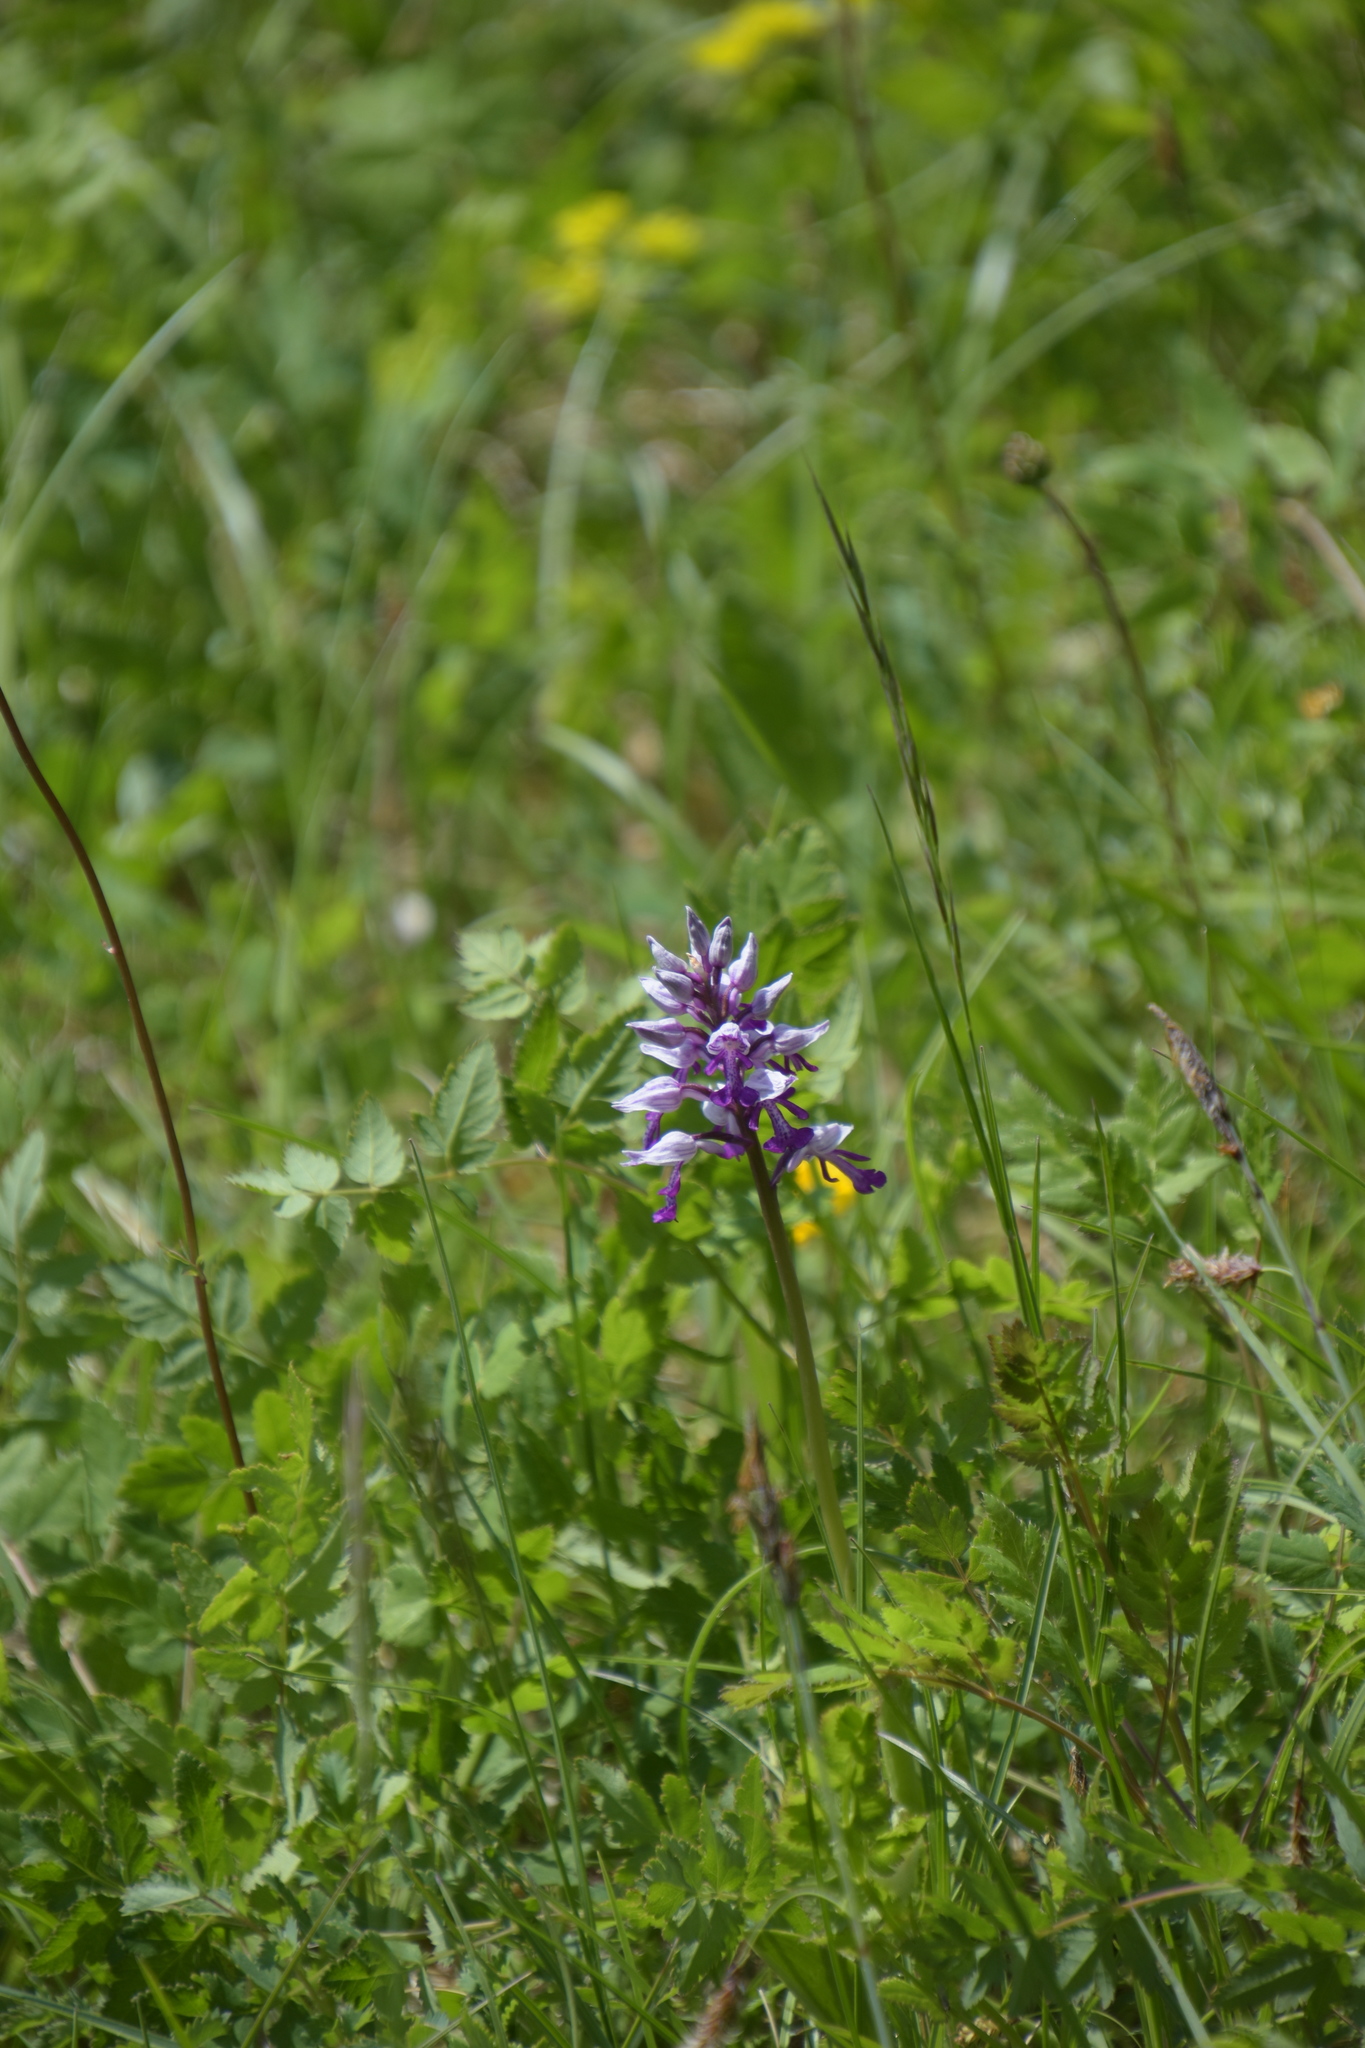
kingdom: Plantae
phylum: Tracheophyta
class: Liliopsida
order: Asparagales
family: Orchidaceae
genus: Orchis
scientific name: Orchis militaris
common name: Military orchid
